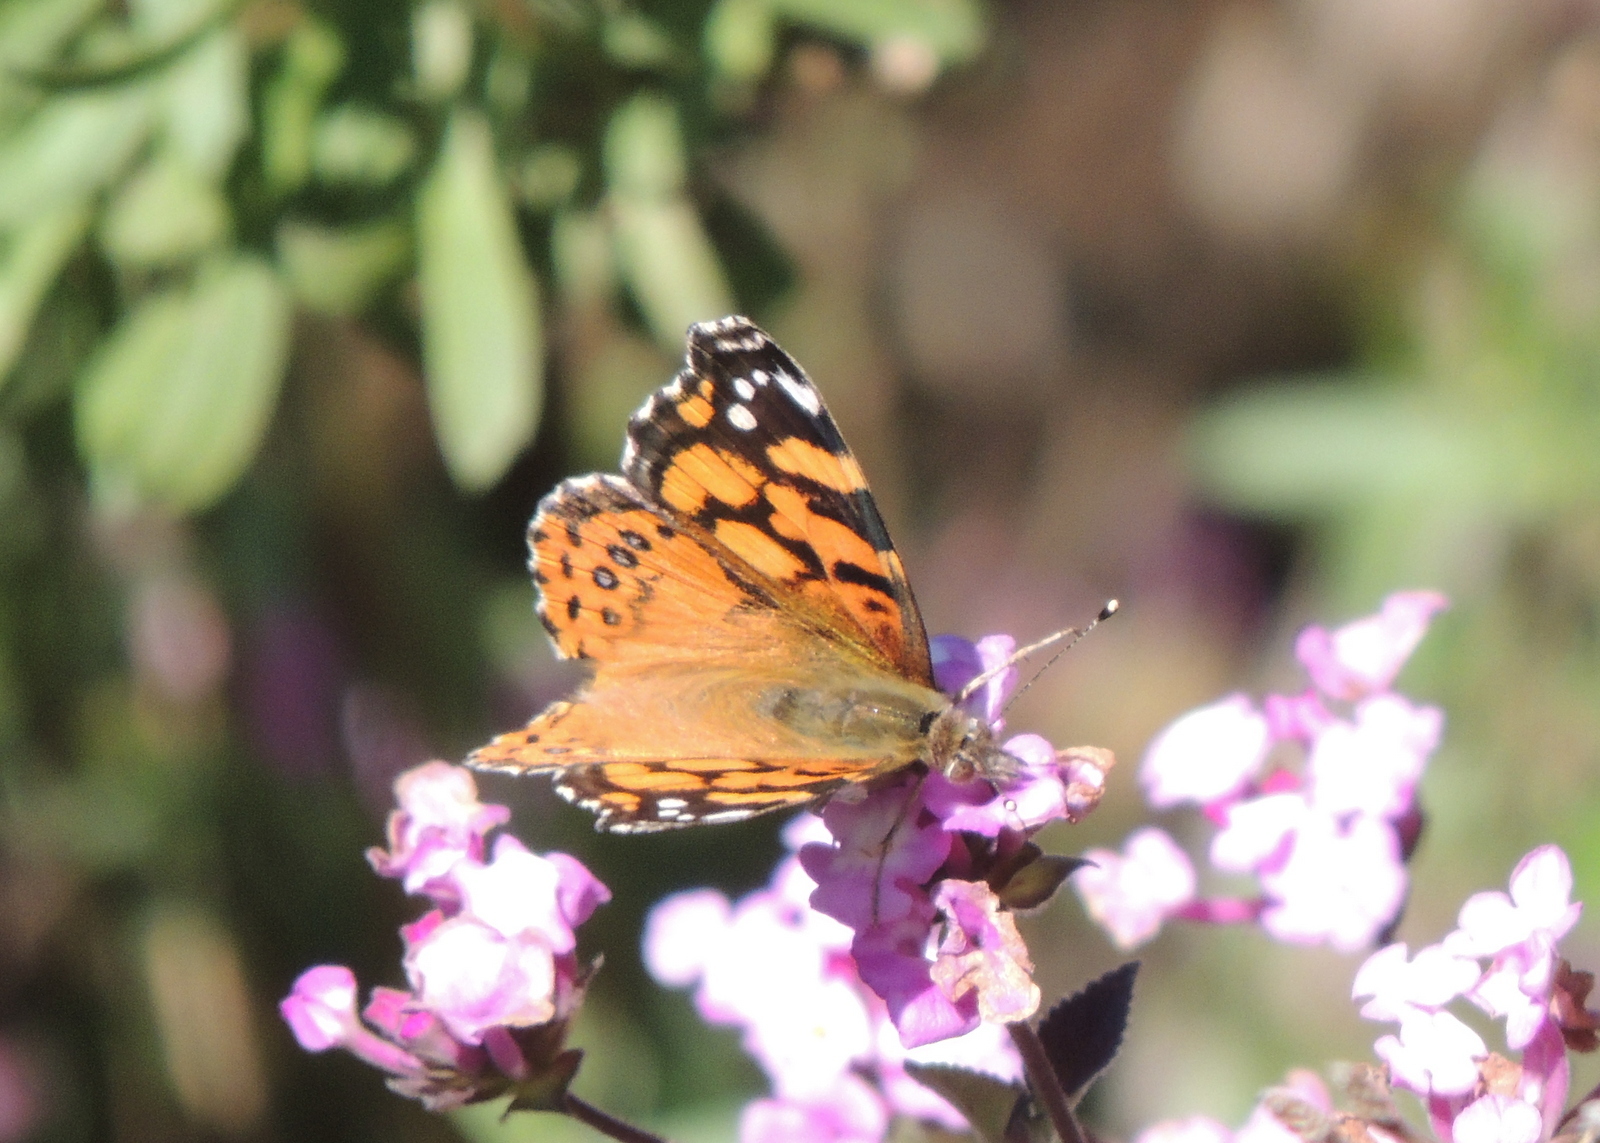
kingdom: Animalia
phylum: Arthropoda
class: Insecta
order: Lepidoptera
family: Nymphalidae
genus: Vanessa
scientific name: Vanessa annabella
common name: West coast lady
